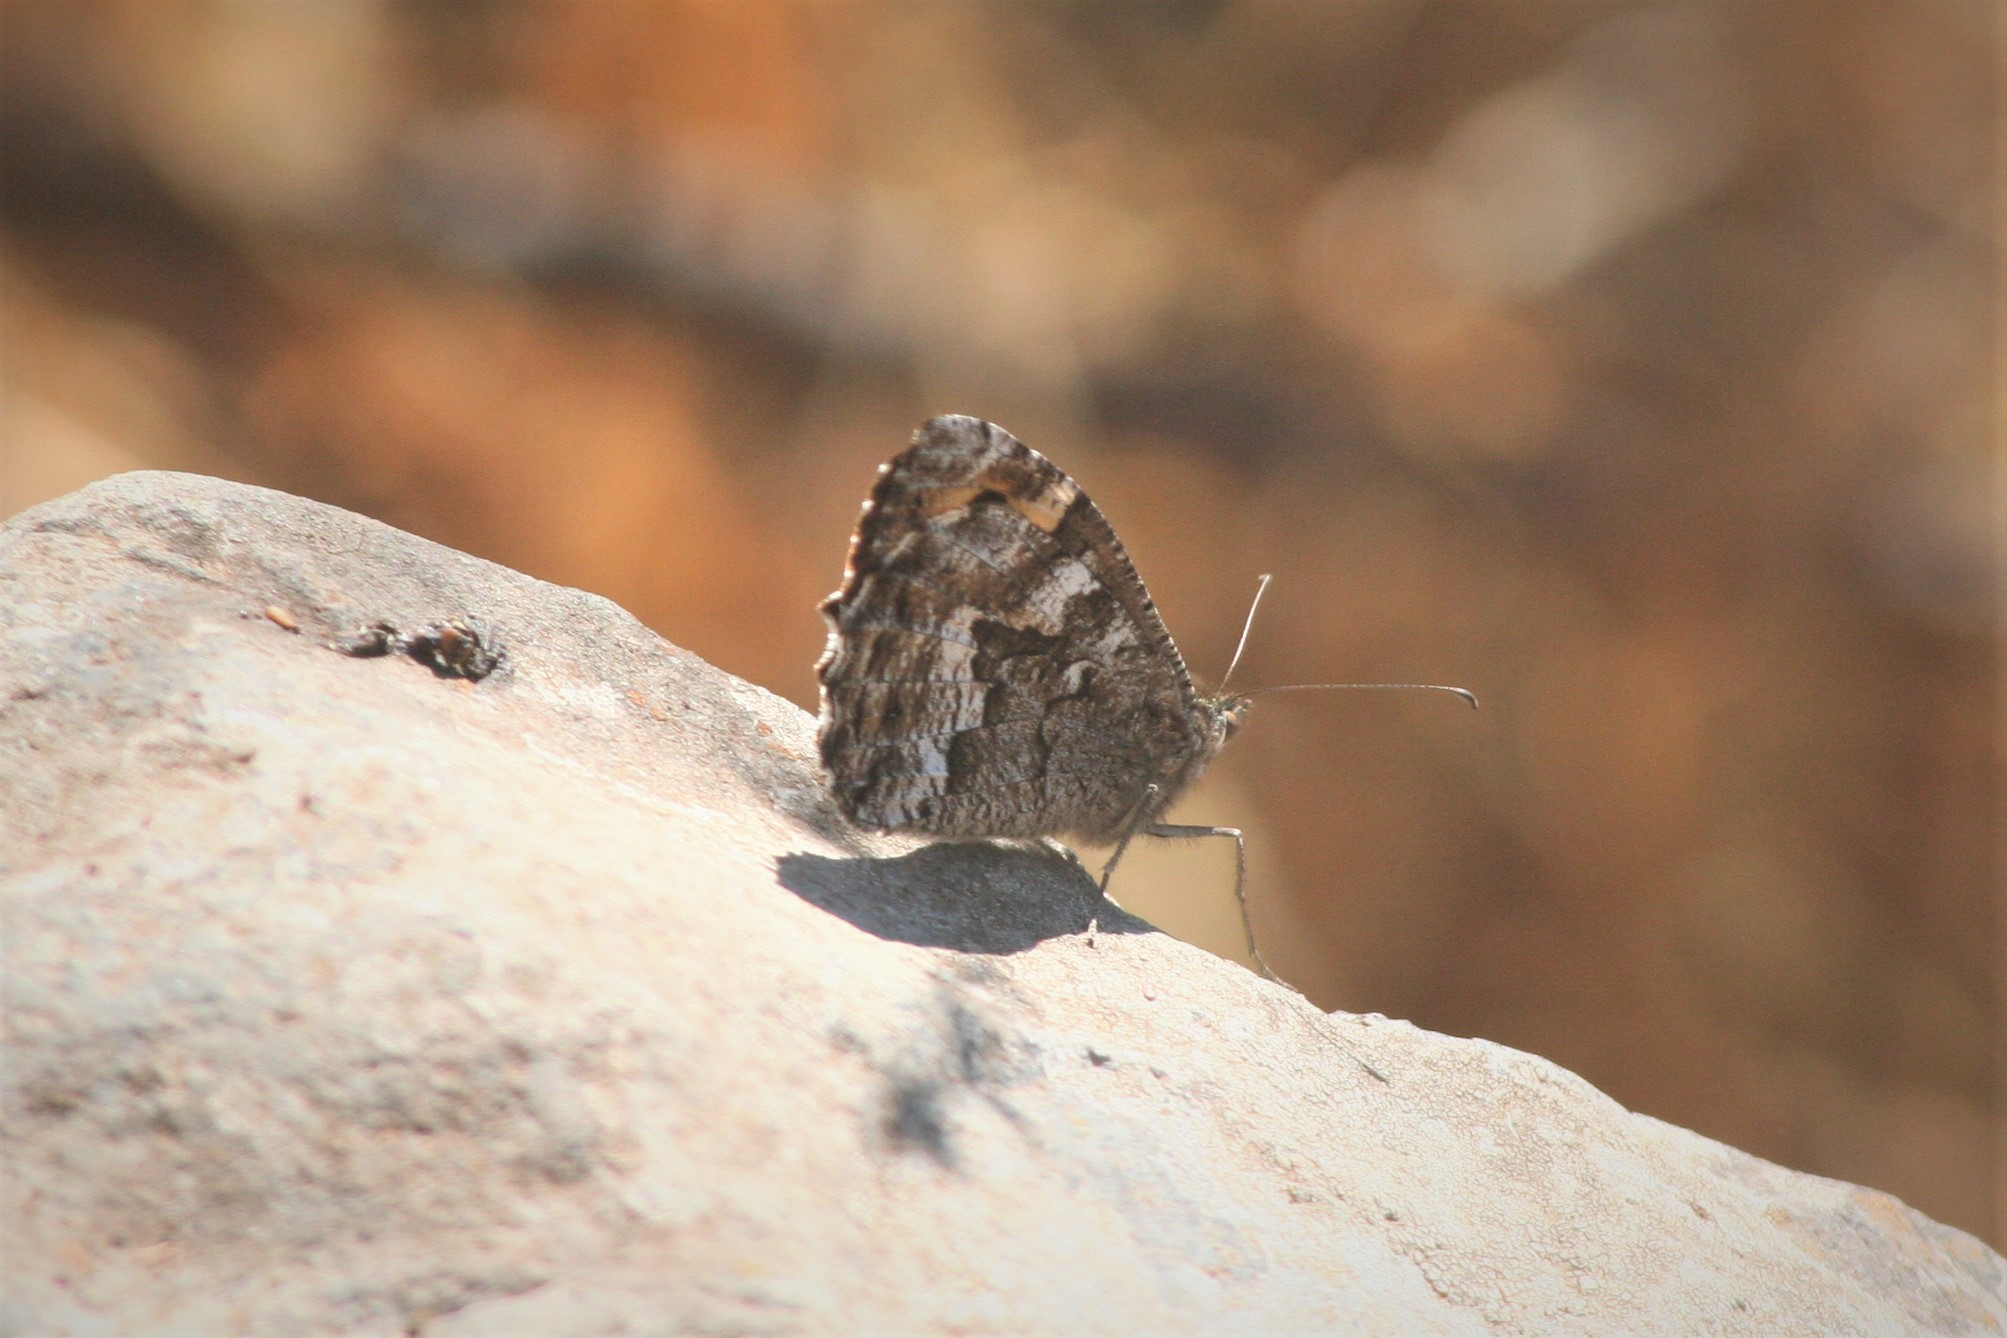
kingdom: Animalia
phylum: Arthropoda
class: Insecta
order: Lepidoptera
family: Nymphalidae
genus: Hipparchia
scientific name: Hipparchia algirica
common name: Mountain grayling
